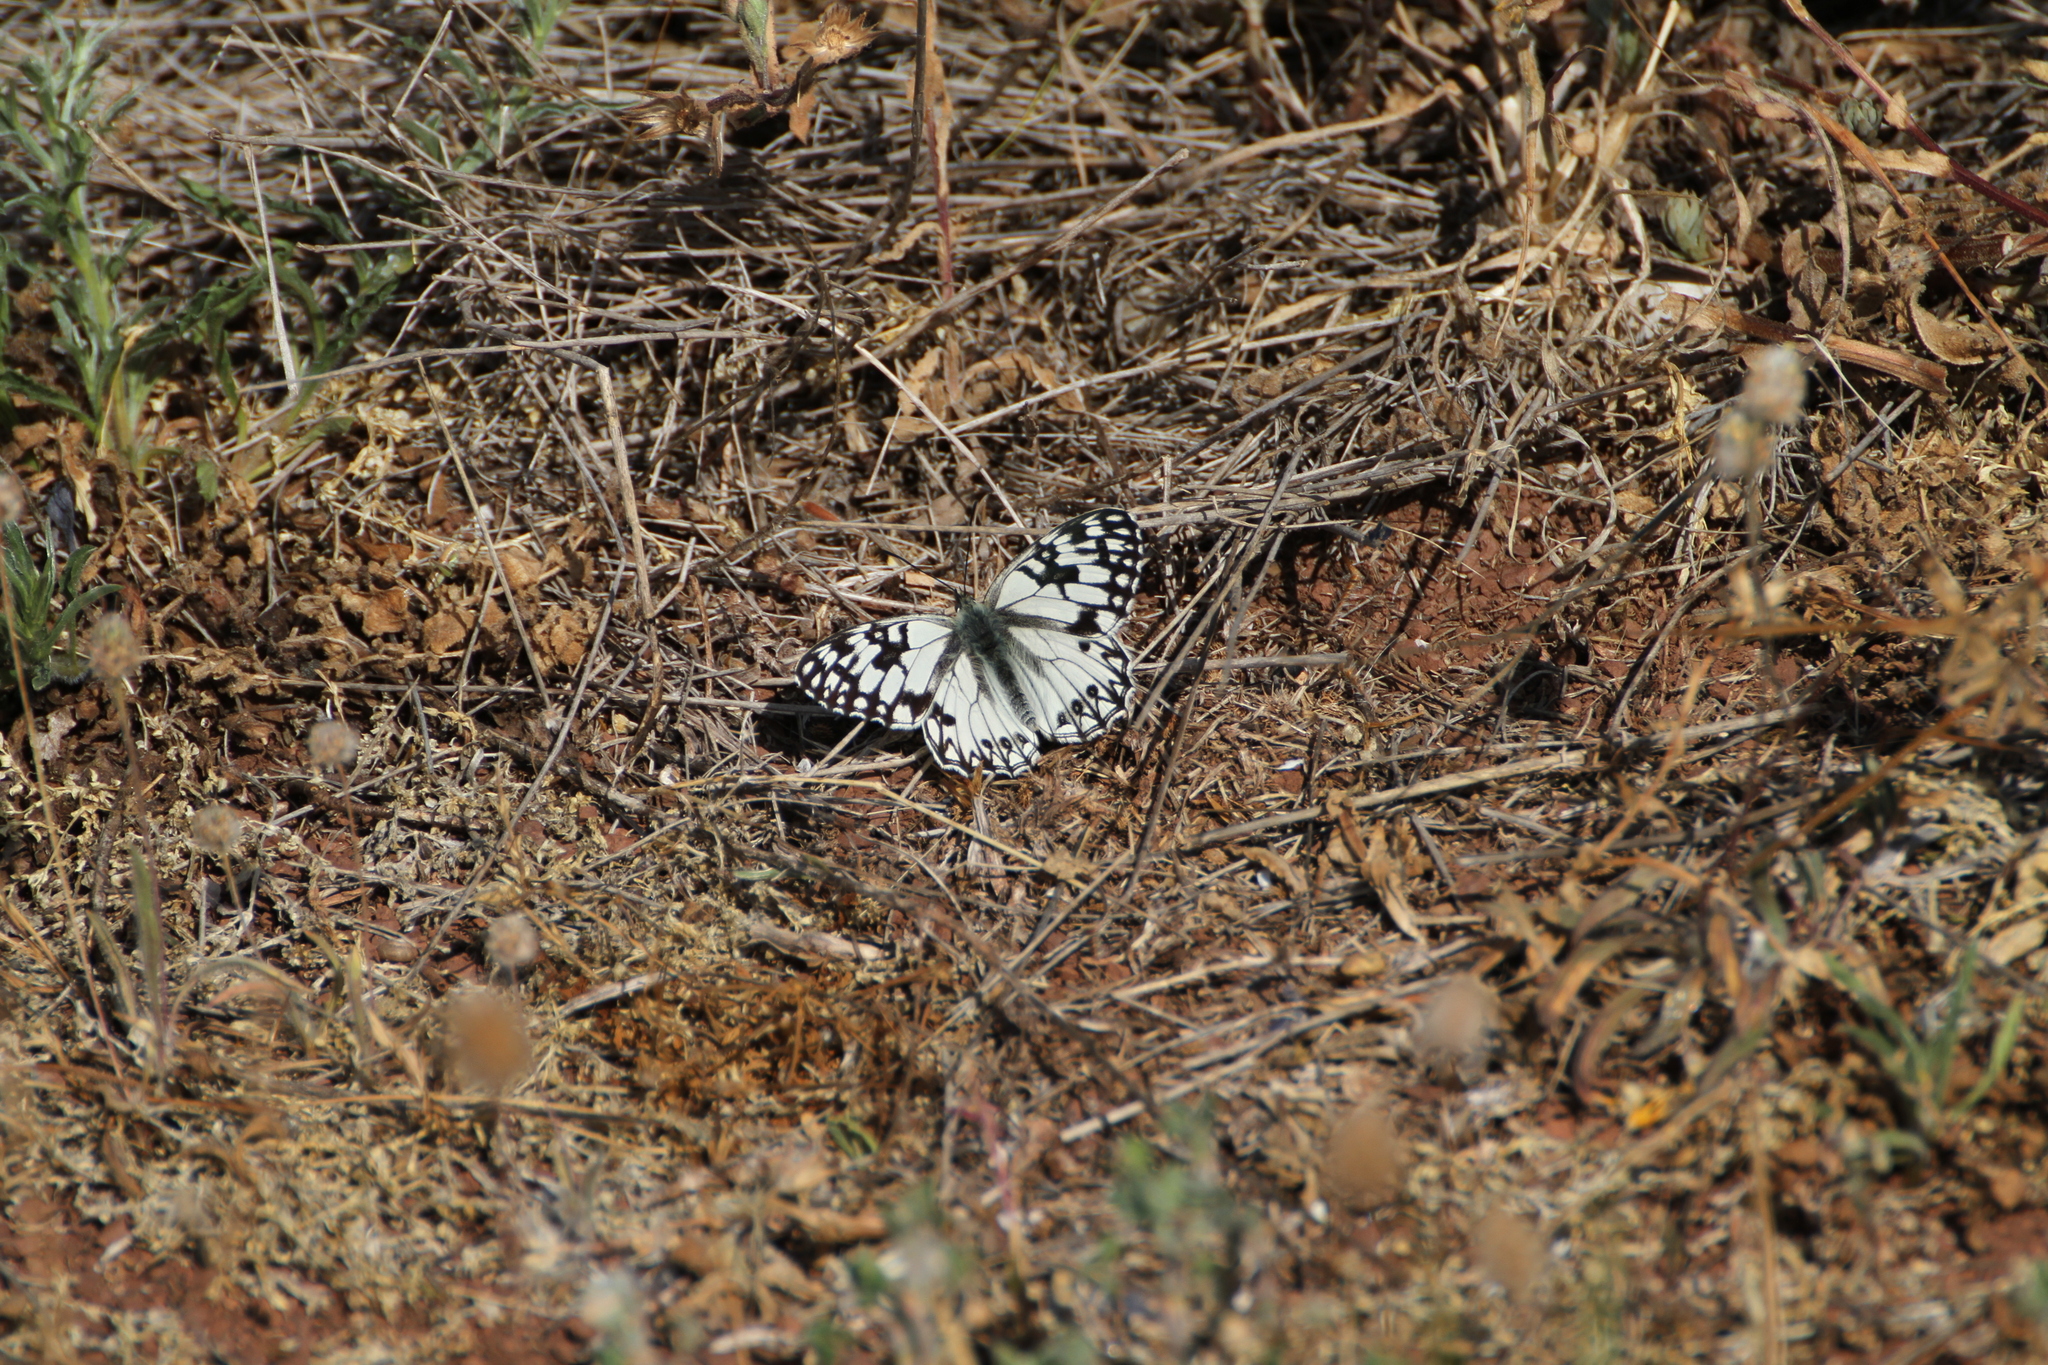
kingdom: Animalia
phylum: Arthropoda
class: Insecta
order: Lepidoptera
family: Nymphalidae
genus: Melanargia
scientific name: Melanargia occitanica
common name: Western marbled white
